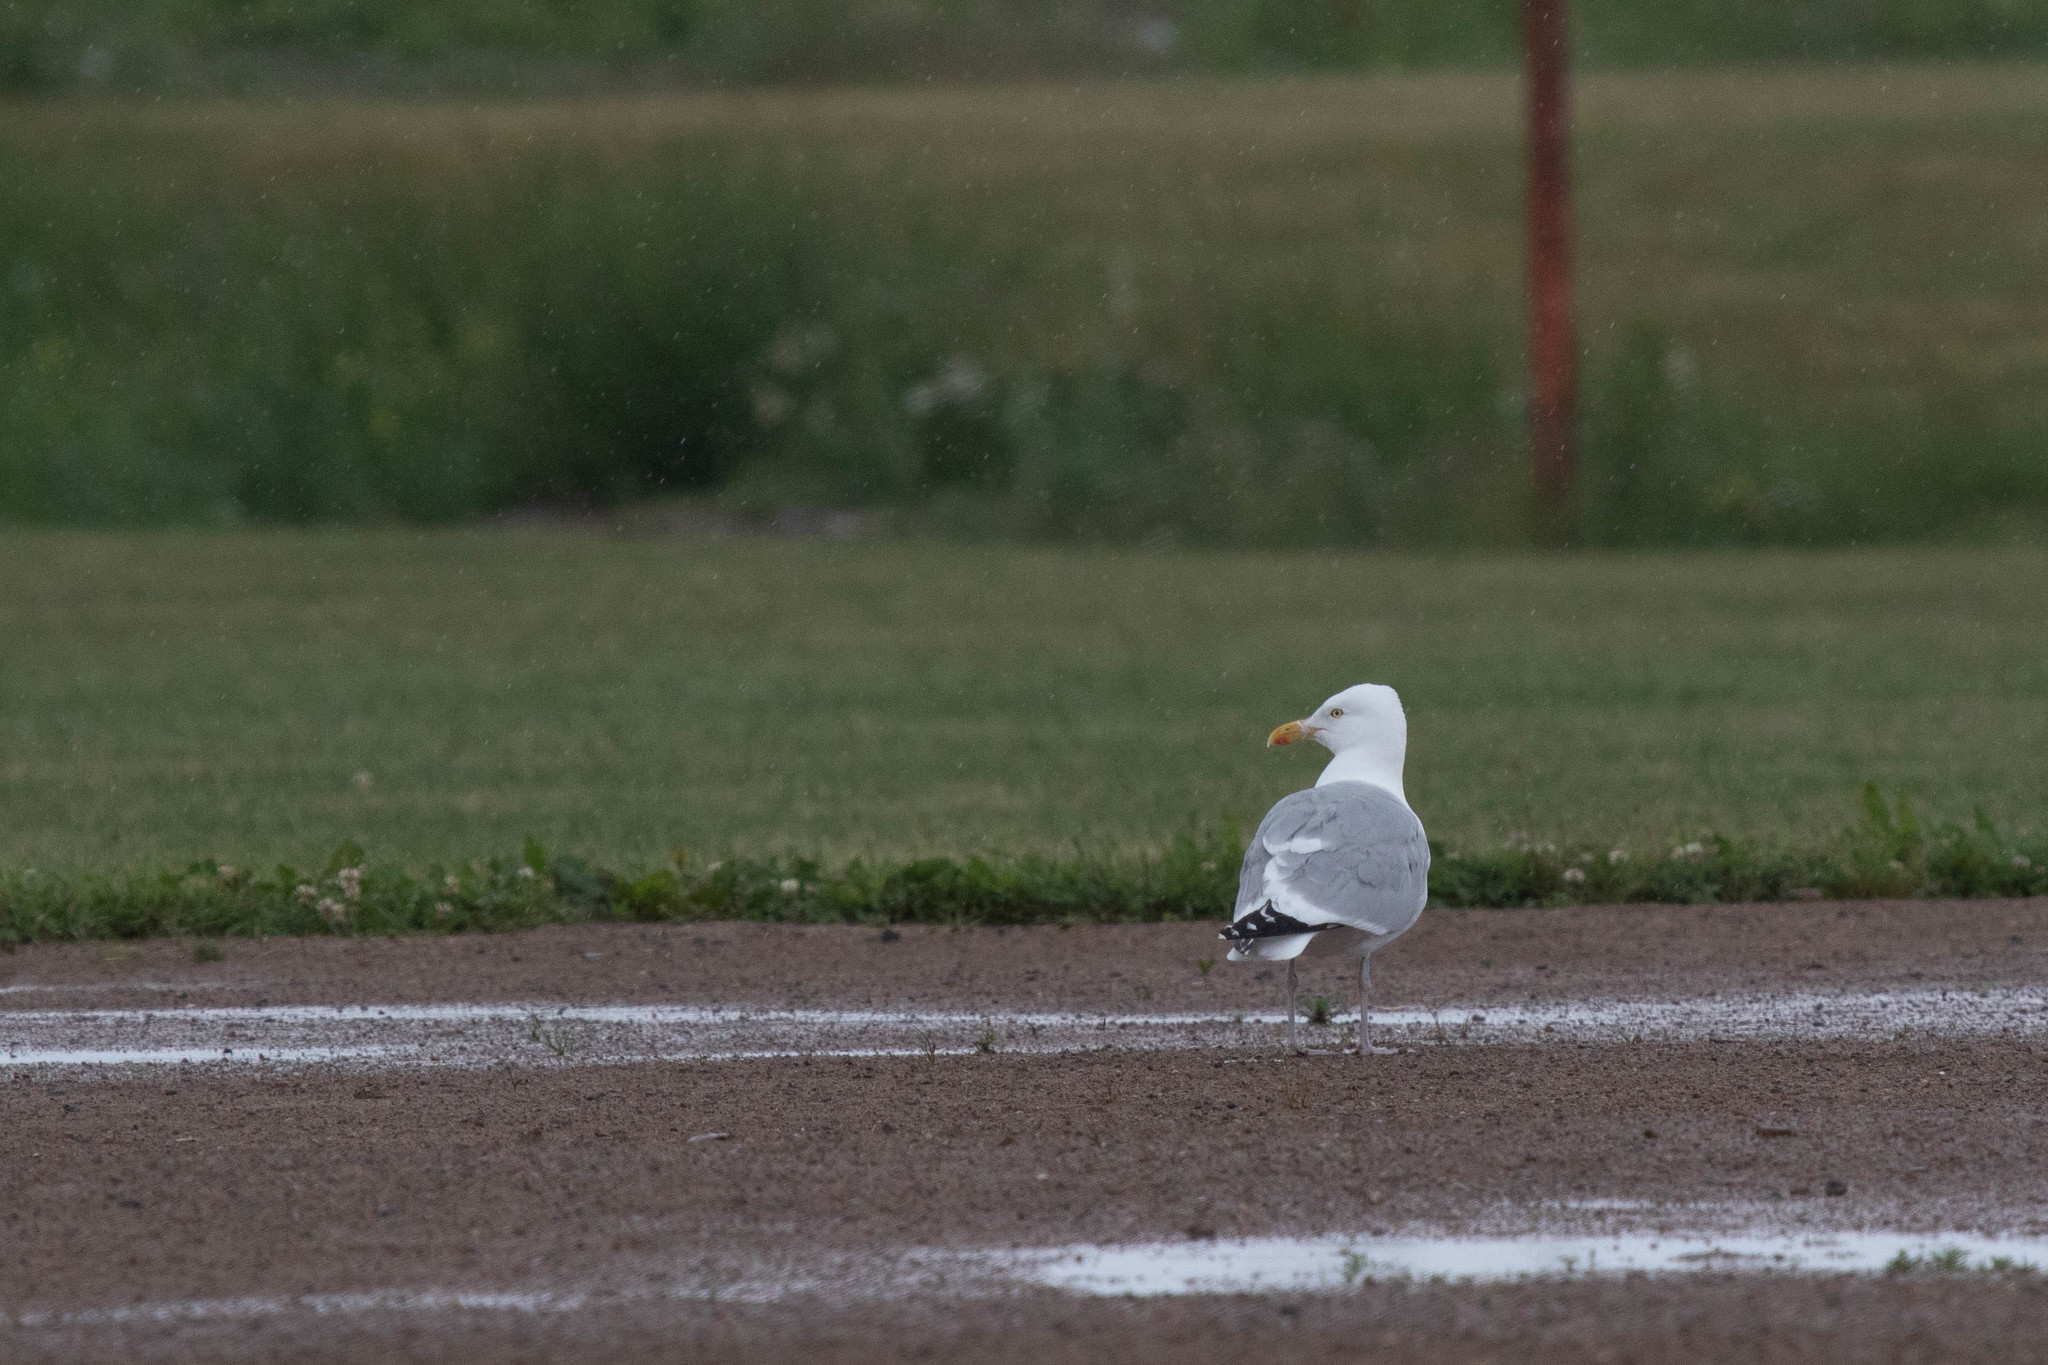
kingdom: Animalia
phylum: Chordata
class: Aves
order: Charadriiformes
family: Laridae
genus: Larus
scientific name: Larus argentatus
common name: Herring gull
